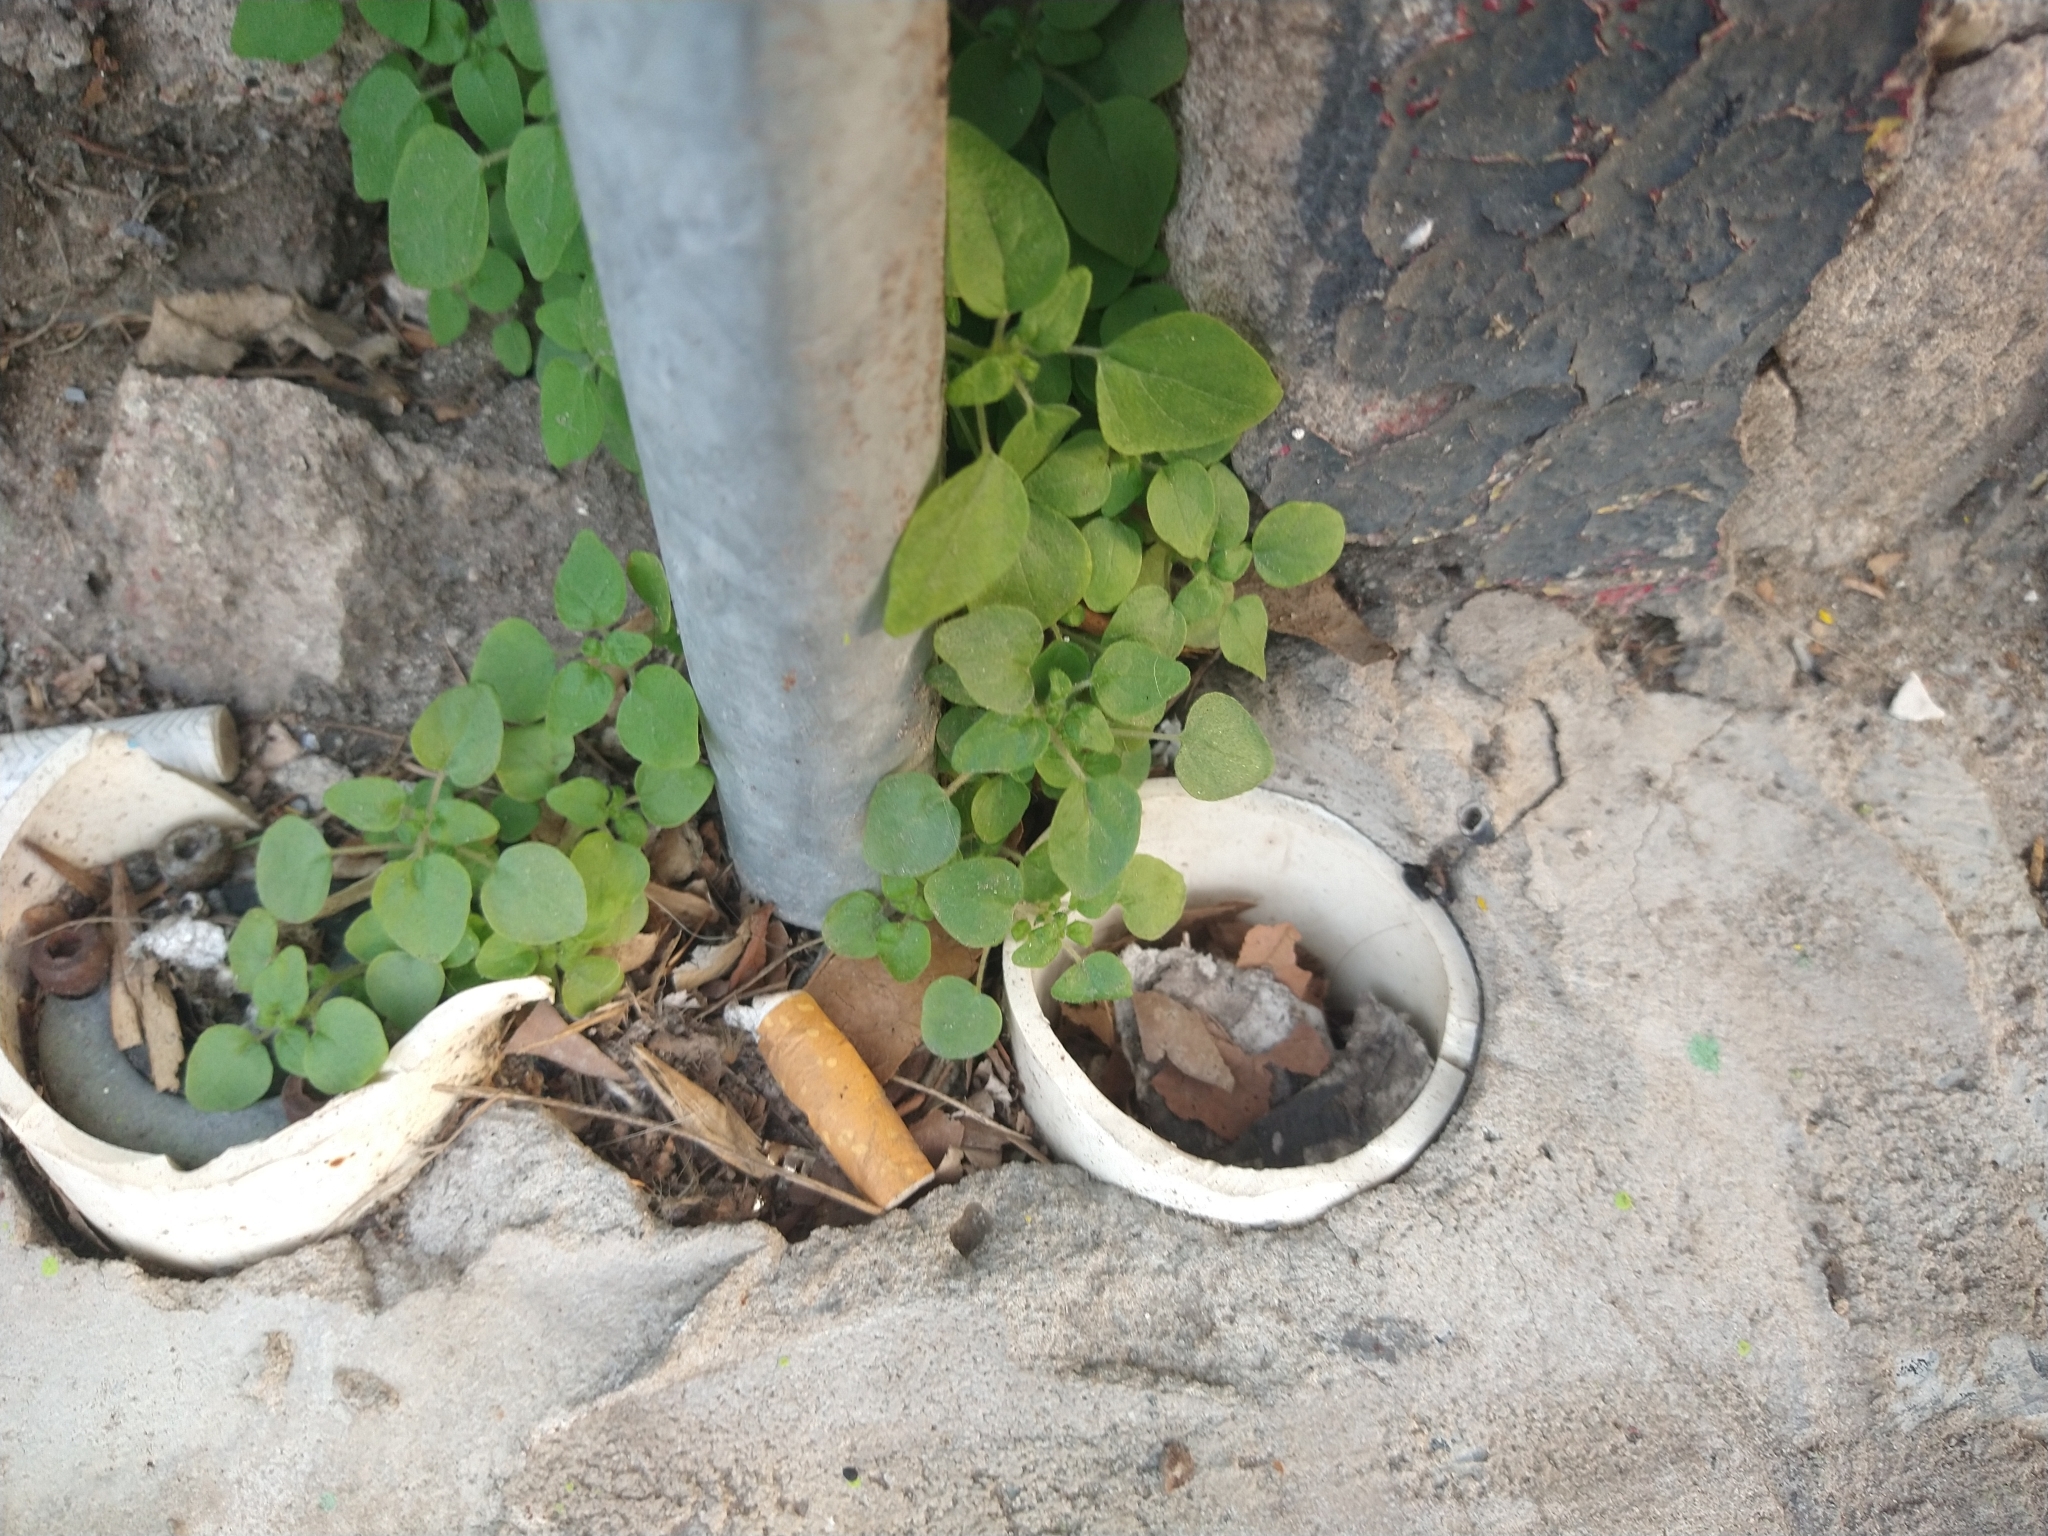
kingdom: Plantae
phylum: Tracheophyta
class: Magnoliopsida
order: Caryophyllales
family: Caryophyllaceae
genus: Stellaria
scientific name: Stellaria media
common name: Common chickweed
